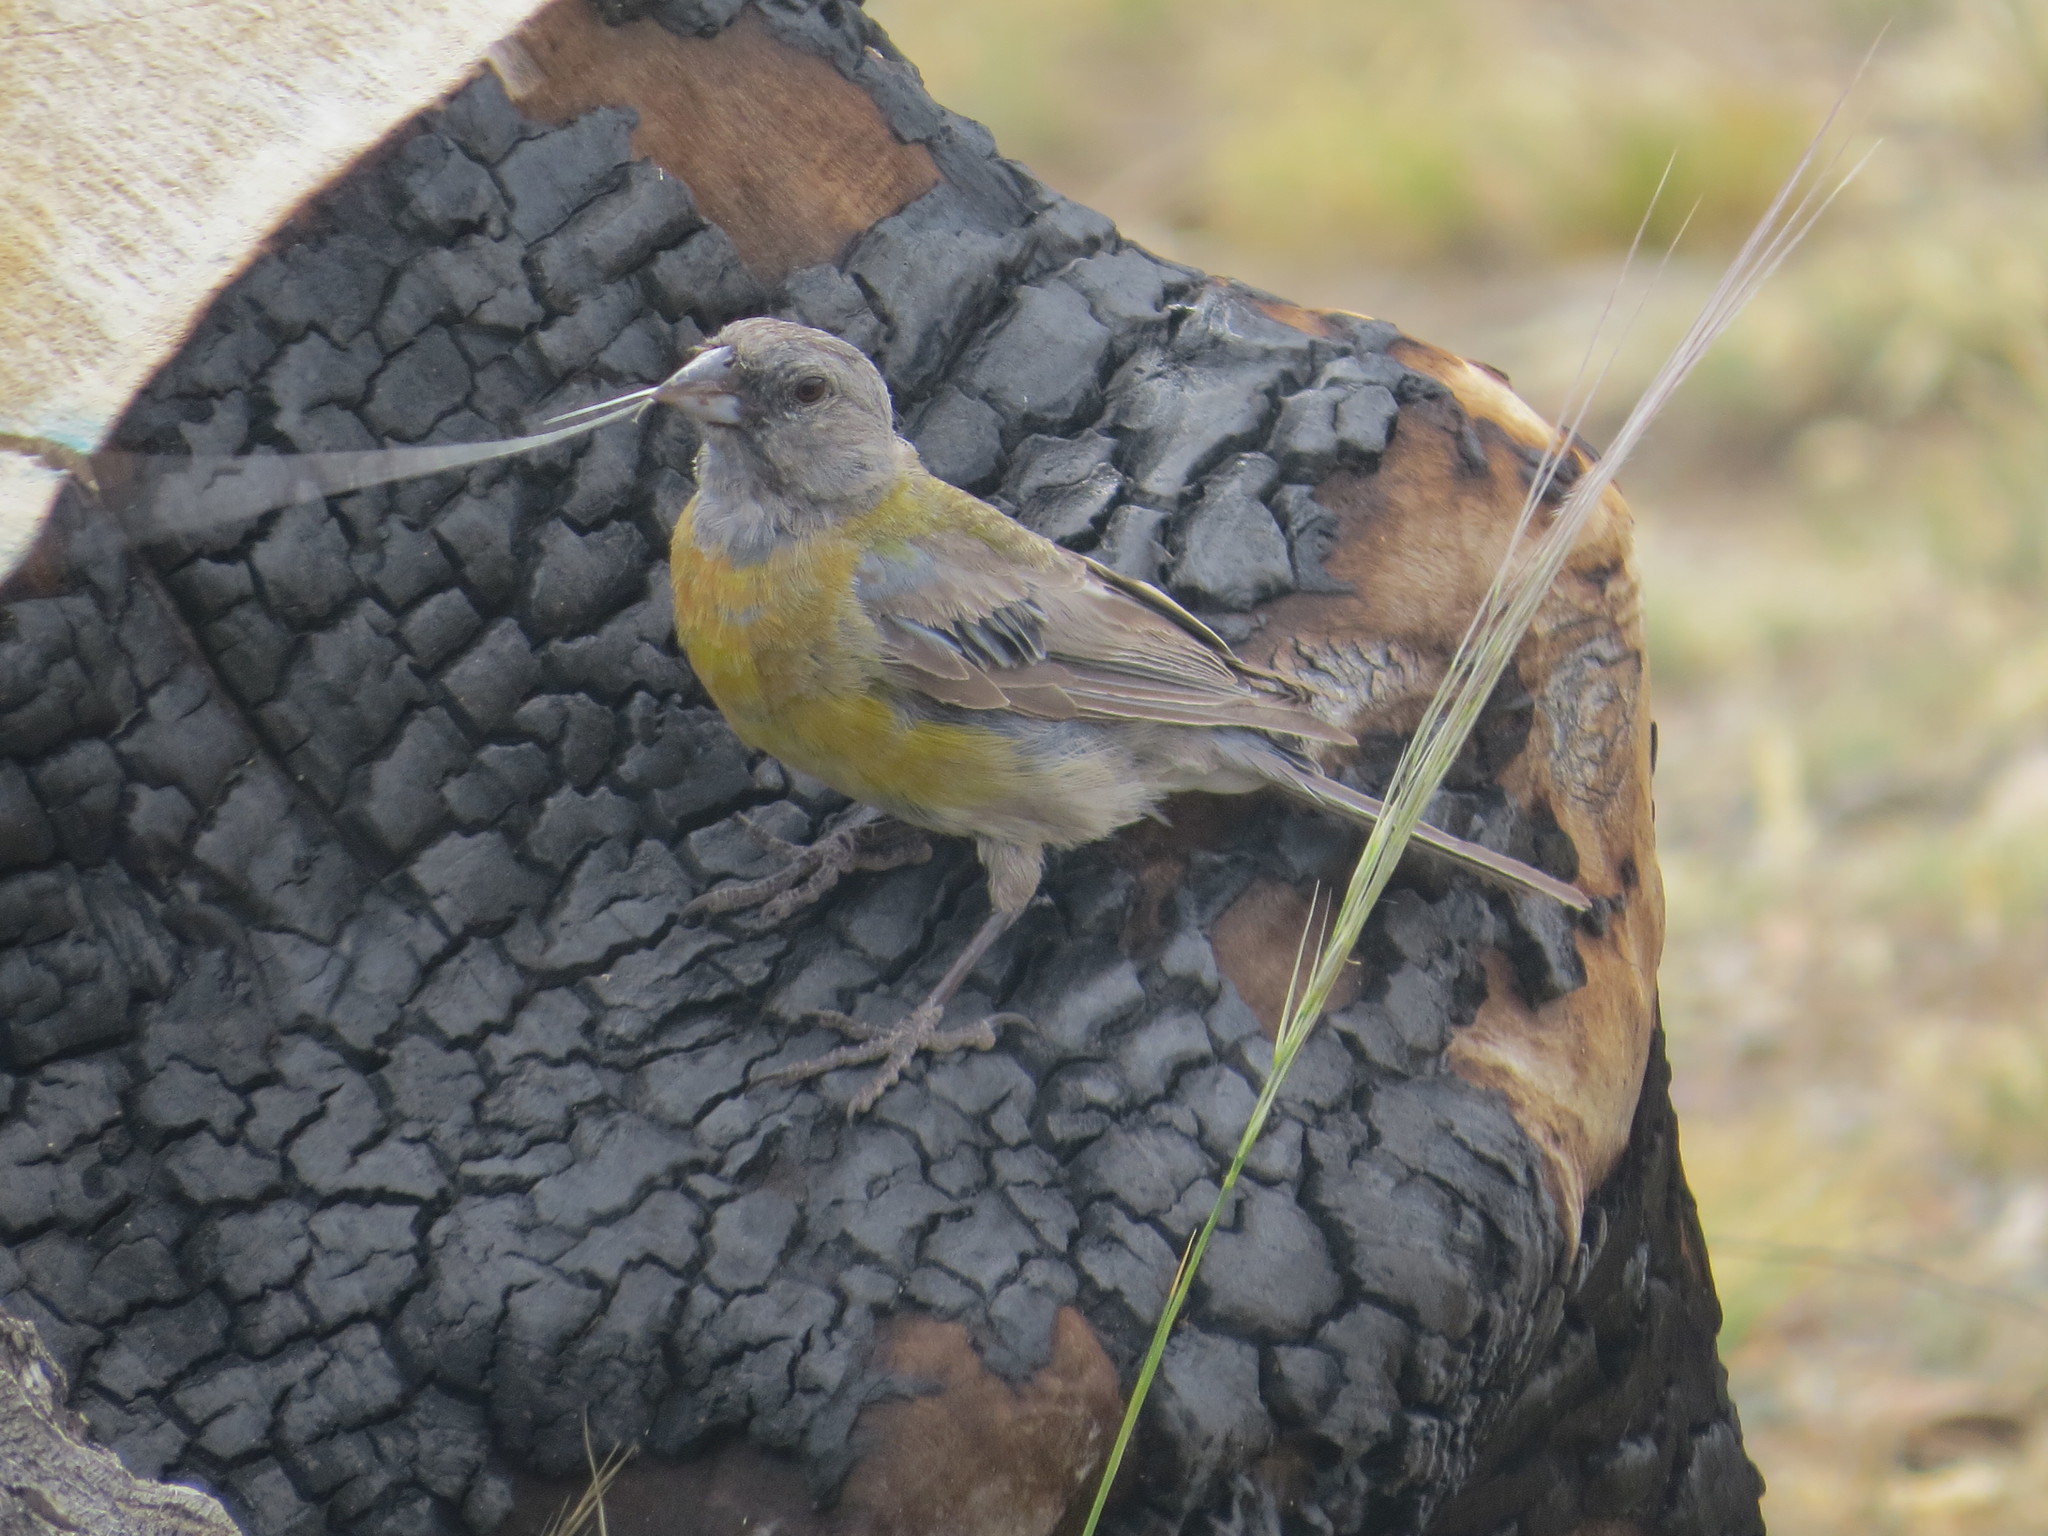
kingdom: Animalia
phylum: Chordata
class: Aves
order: Passeriformes
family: Thraupidae
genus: Phrygilus
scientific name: Phrygilus gayi
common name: Grey-hooded sierra finch
